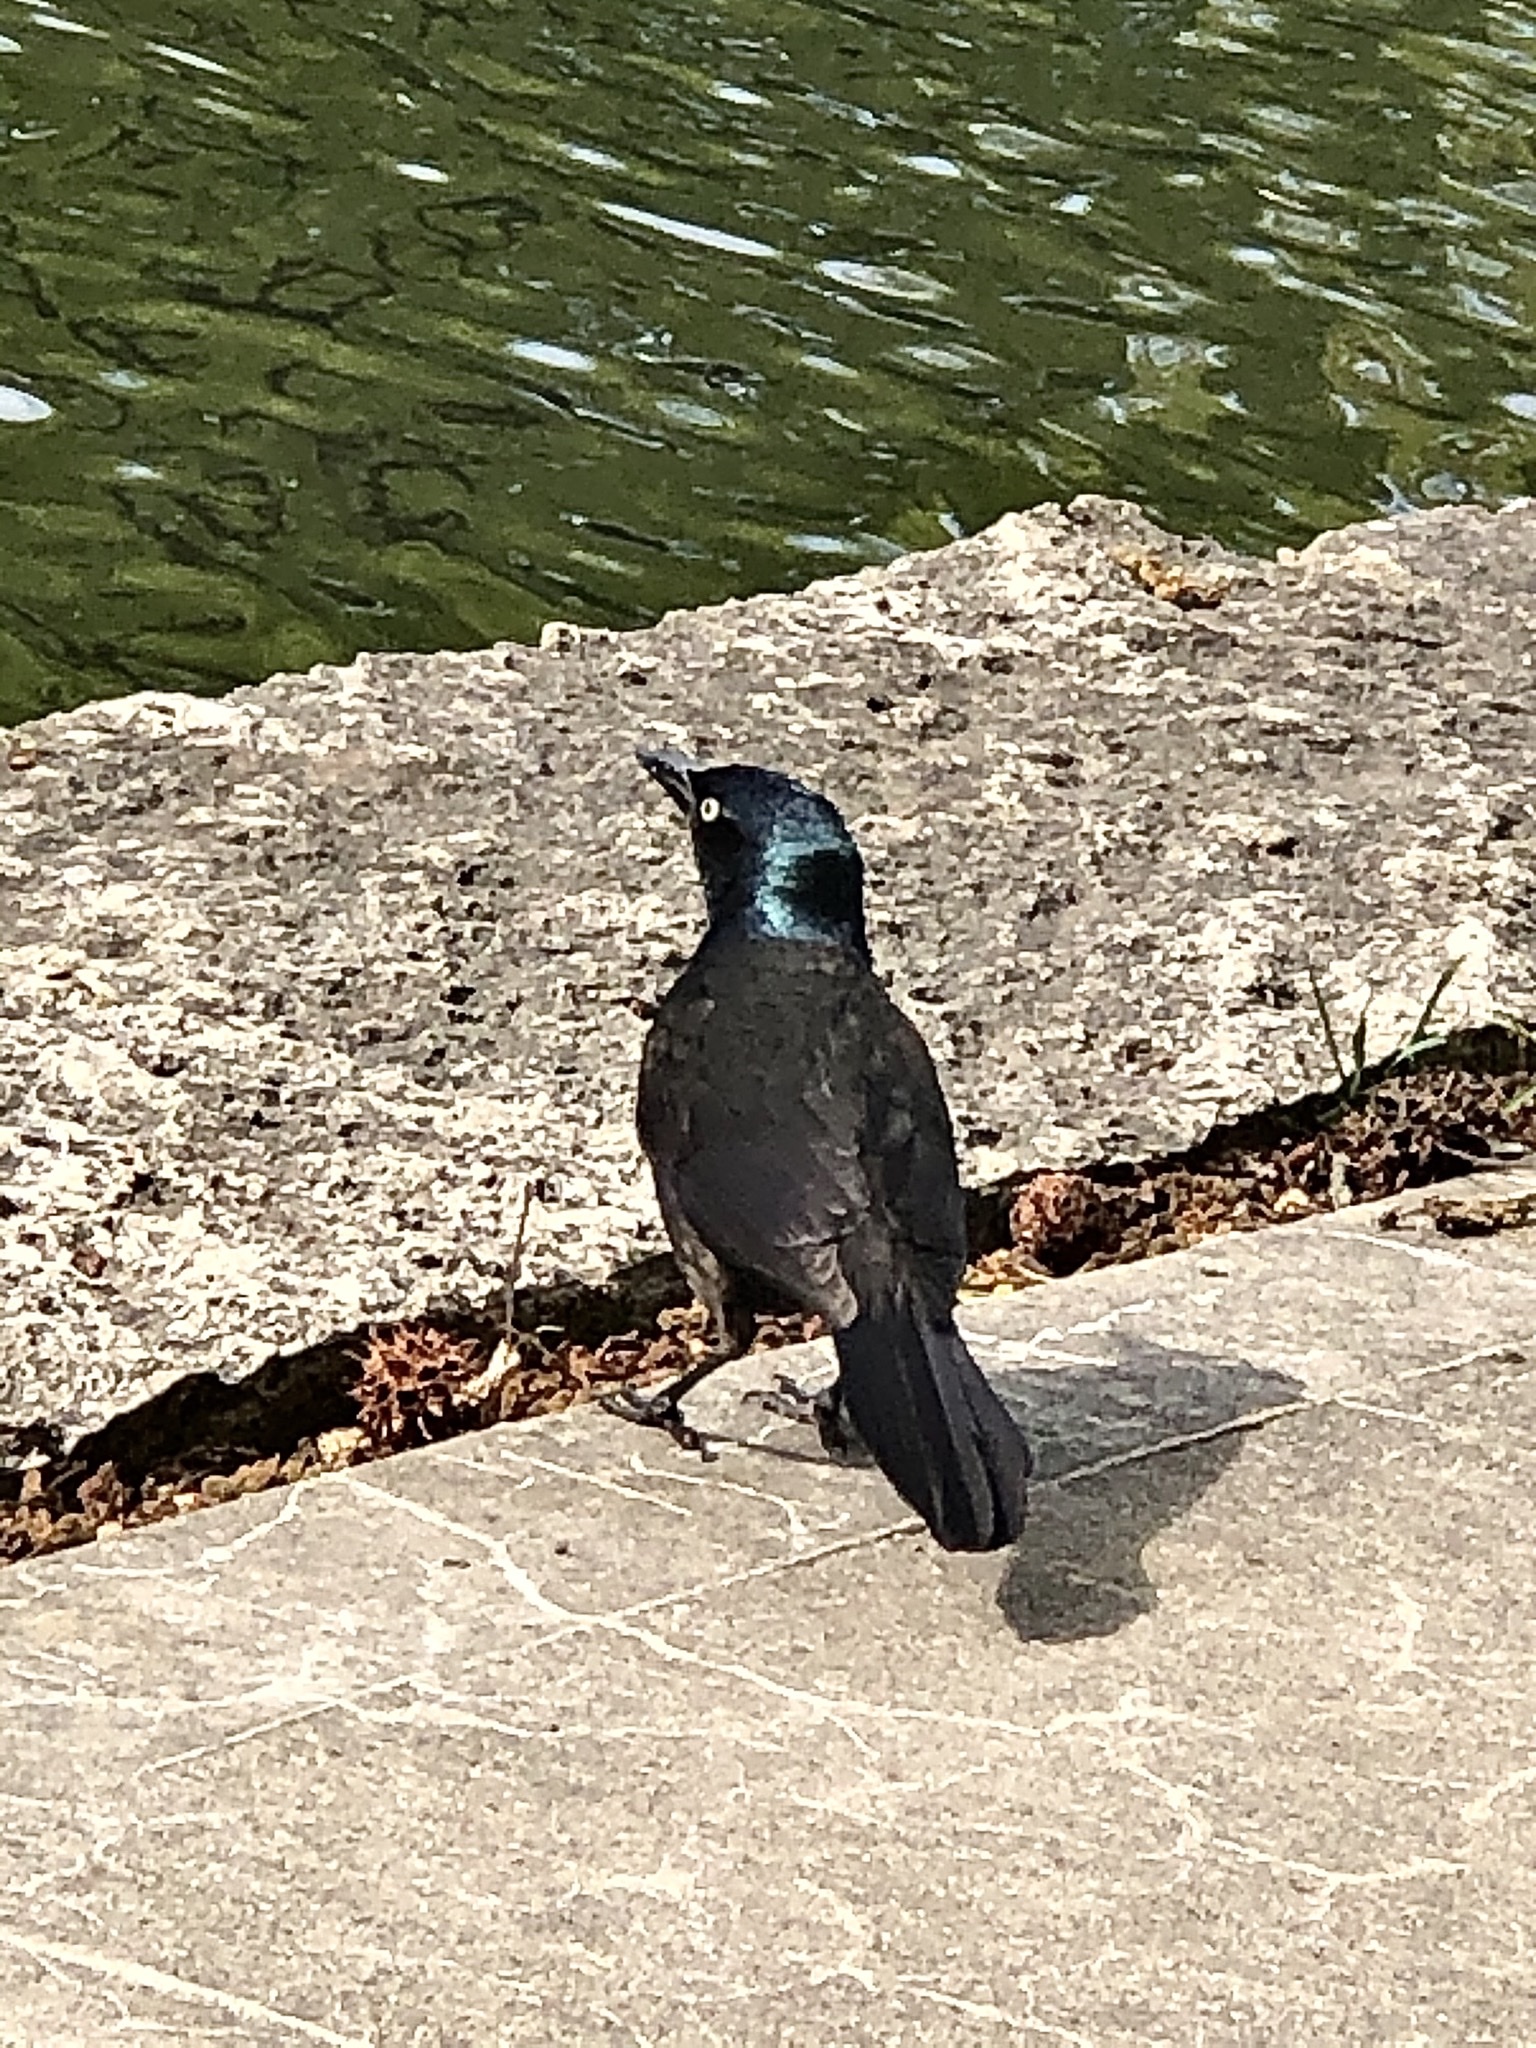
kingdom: Animalia
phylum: Chordata
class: Aves
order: Passeriformes
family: Icteridae
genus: Quiscalus
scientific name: Quiscalus quiscula
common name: Common grackle
